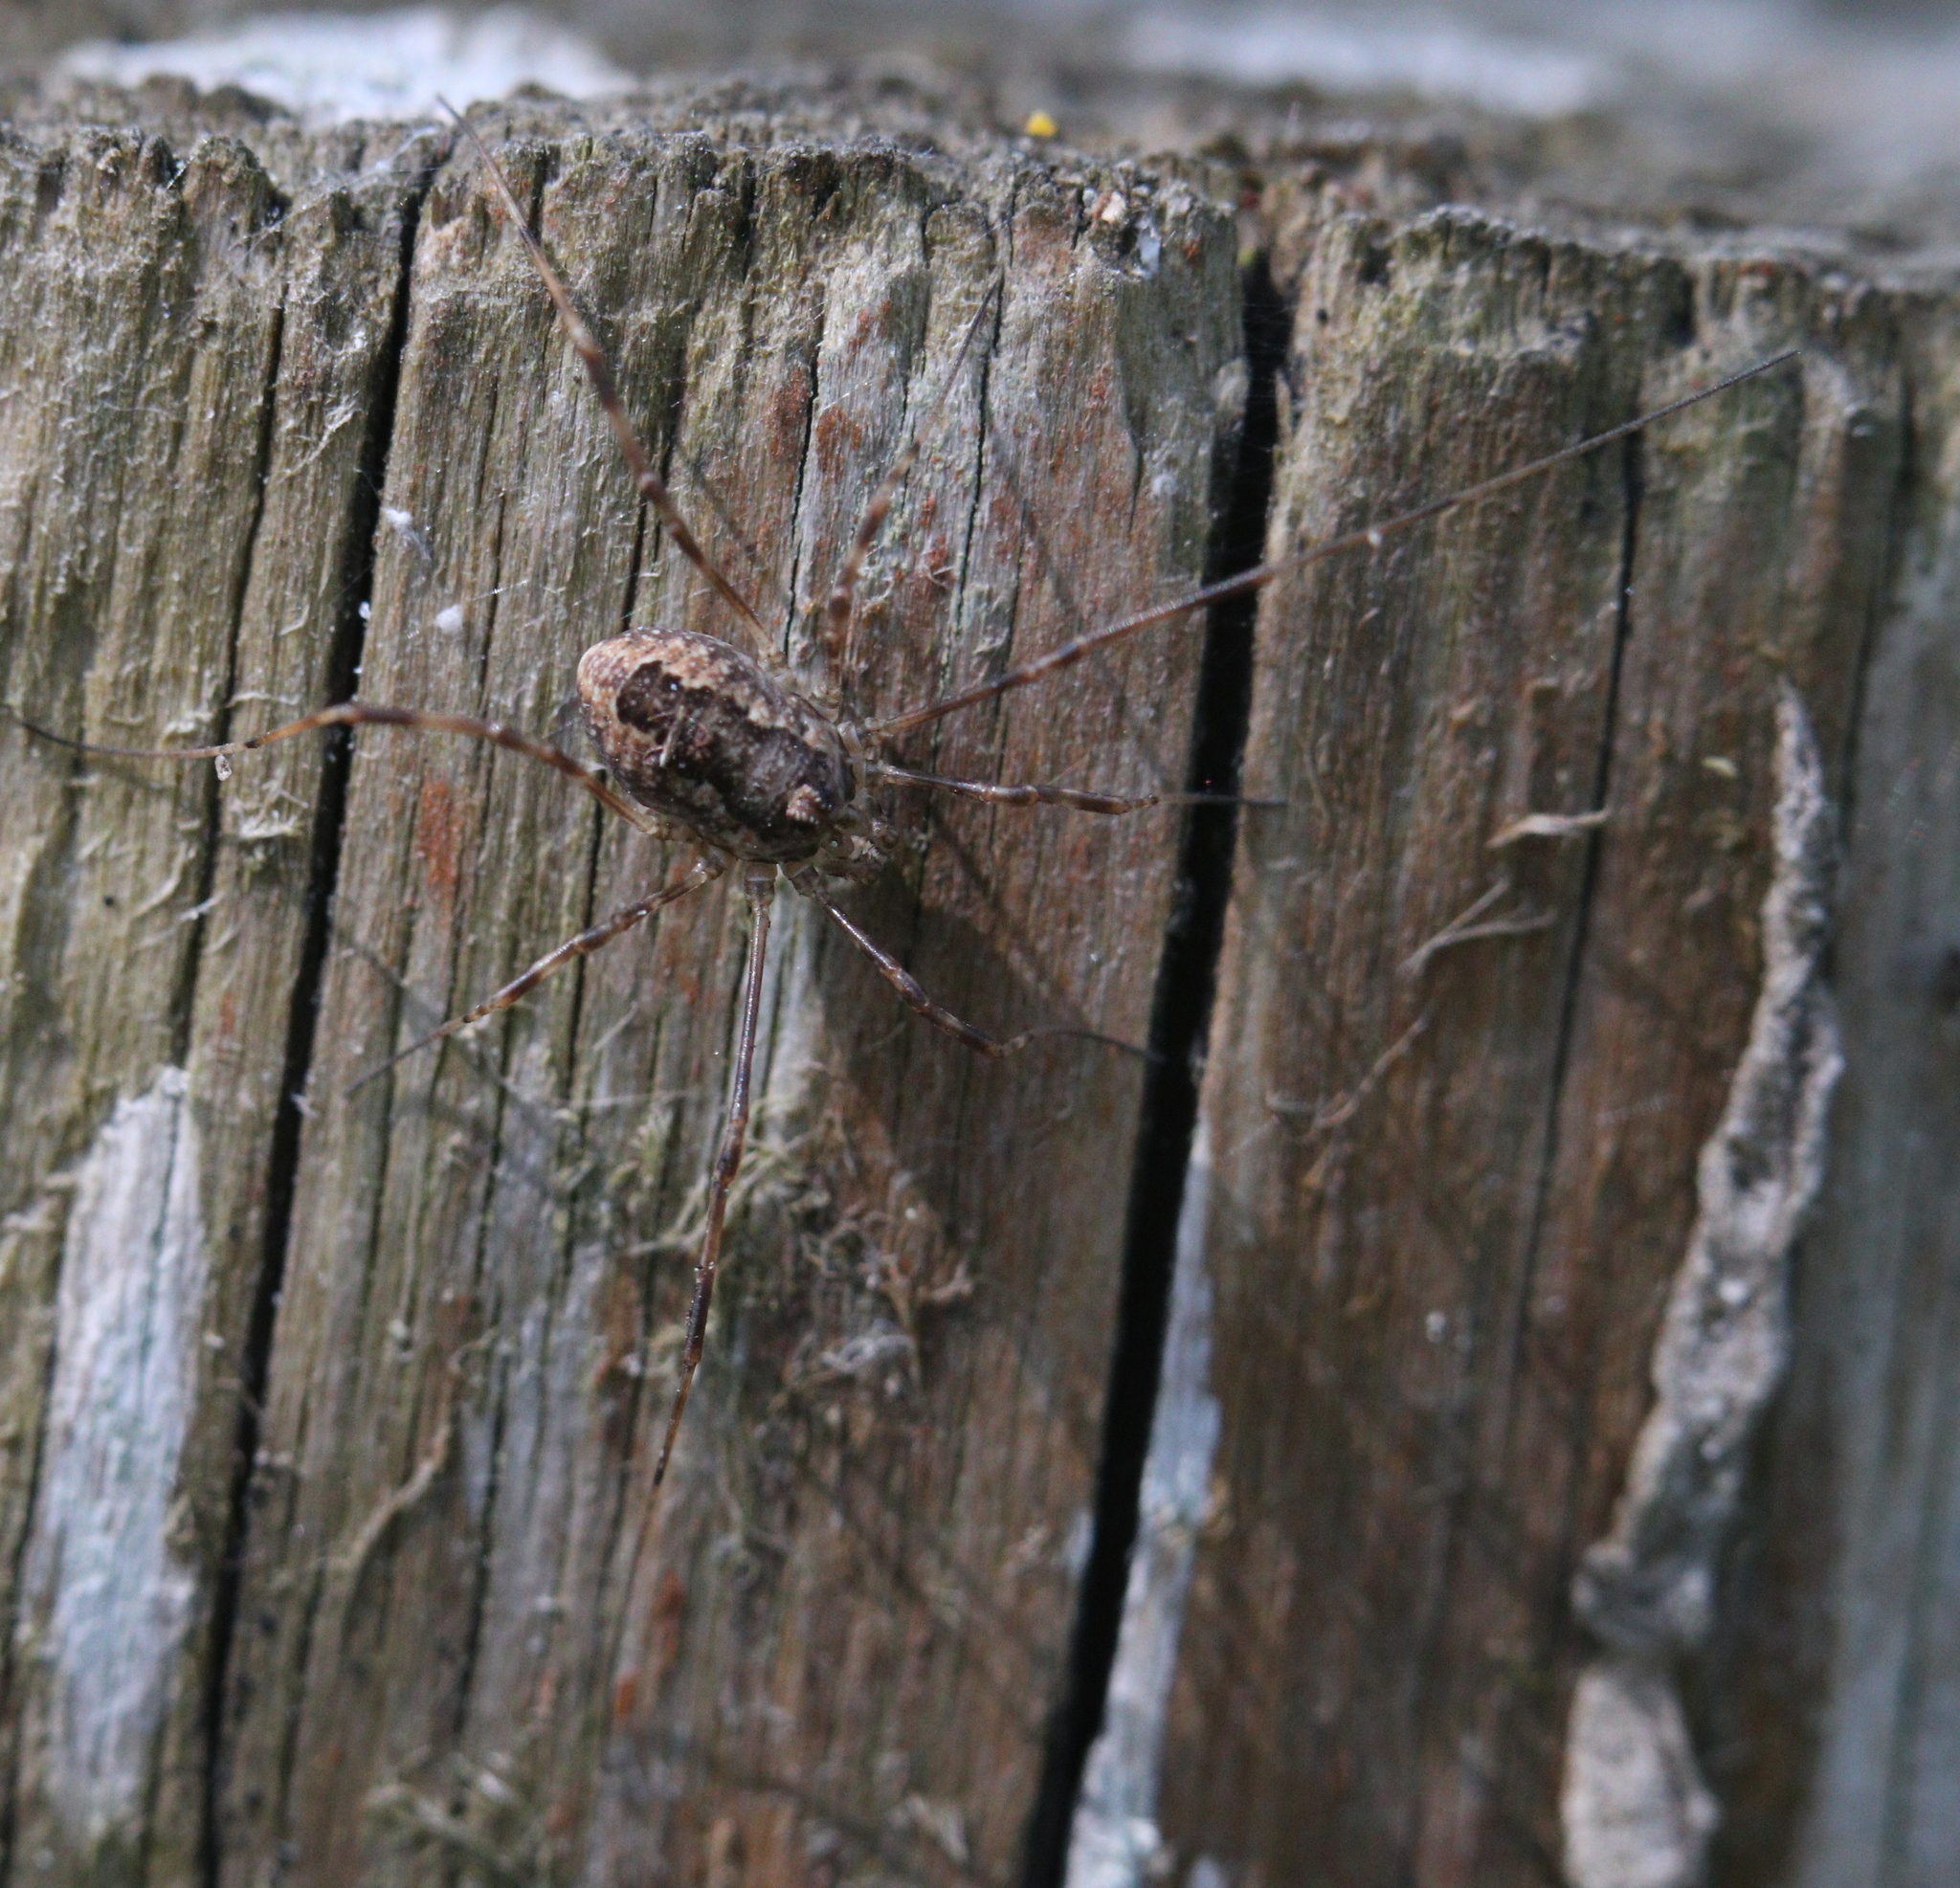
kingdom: Animalia
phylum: Arthropoda
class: Arachnida
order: Opiliones
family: Phalangiidae
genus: Rilaena
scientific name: Rilaena triangularis
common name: Spring harvestman
